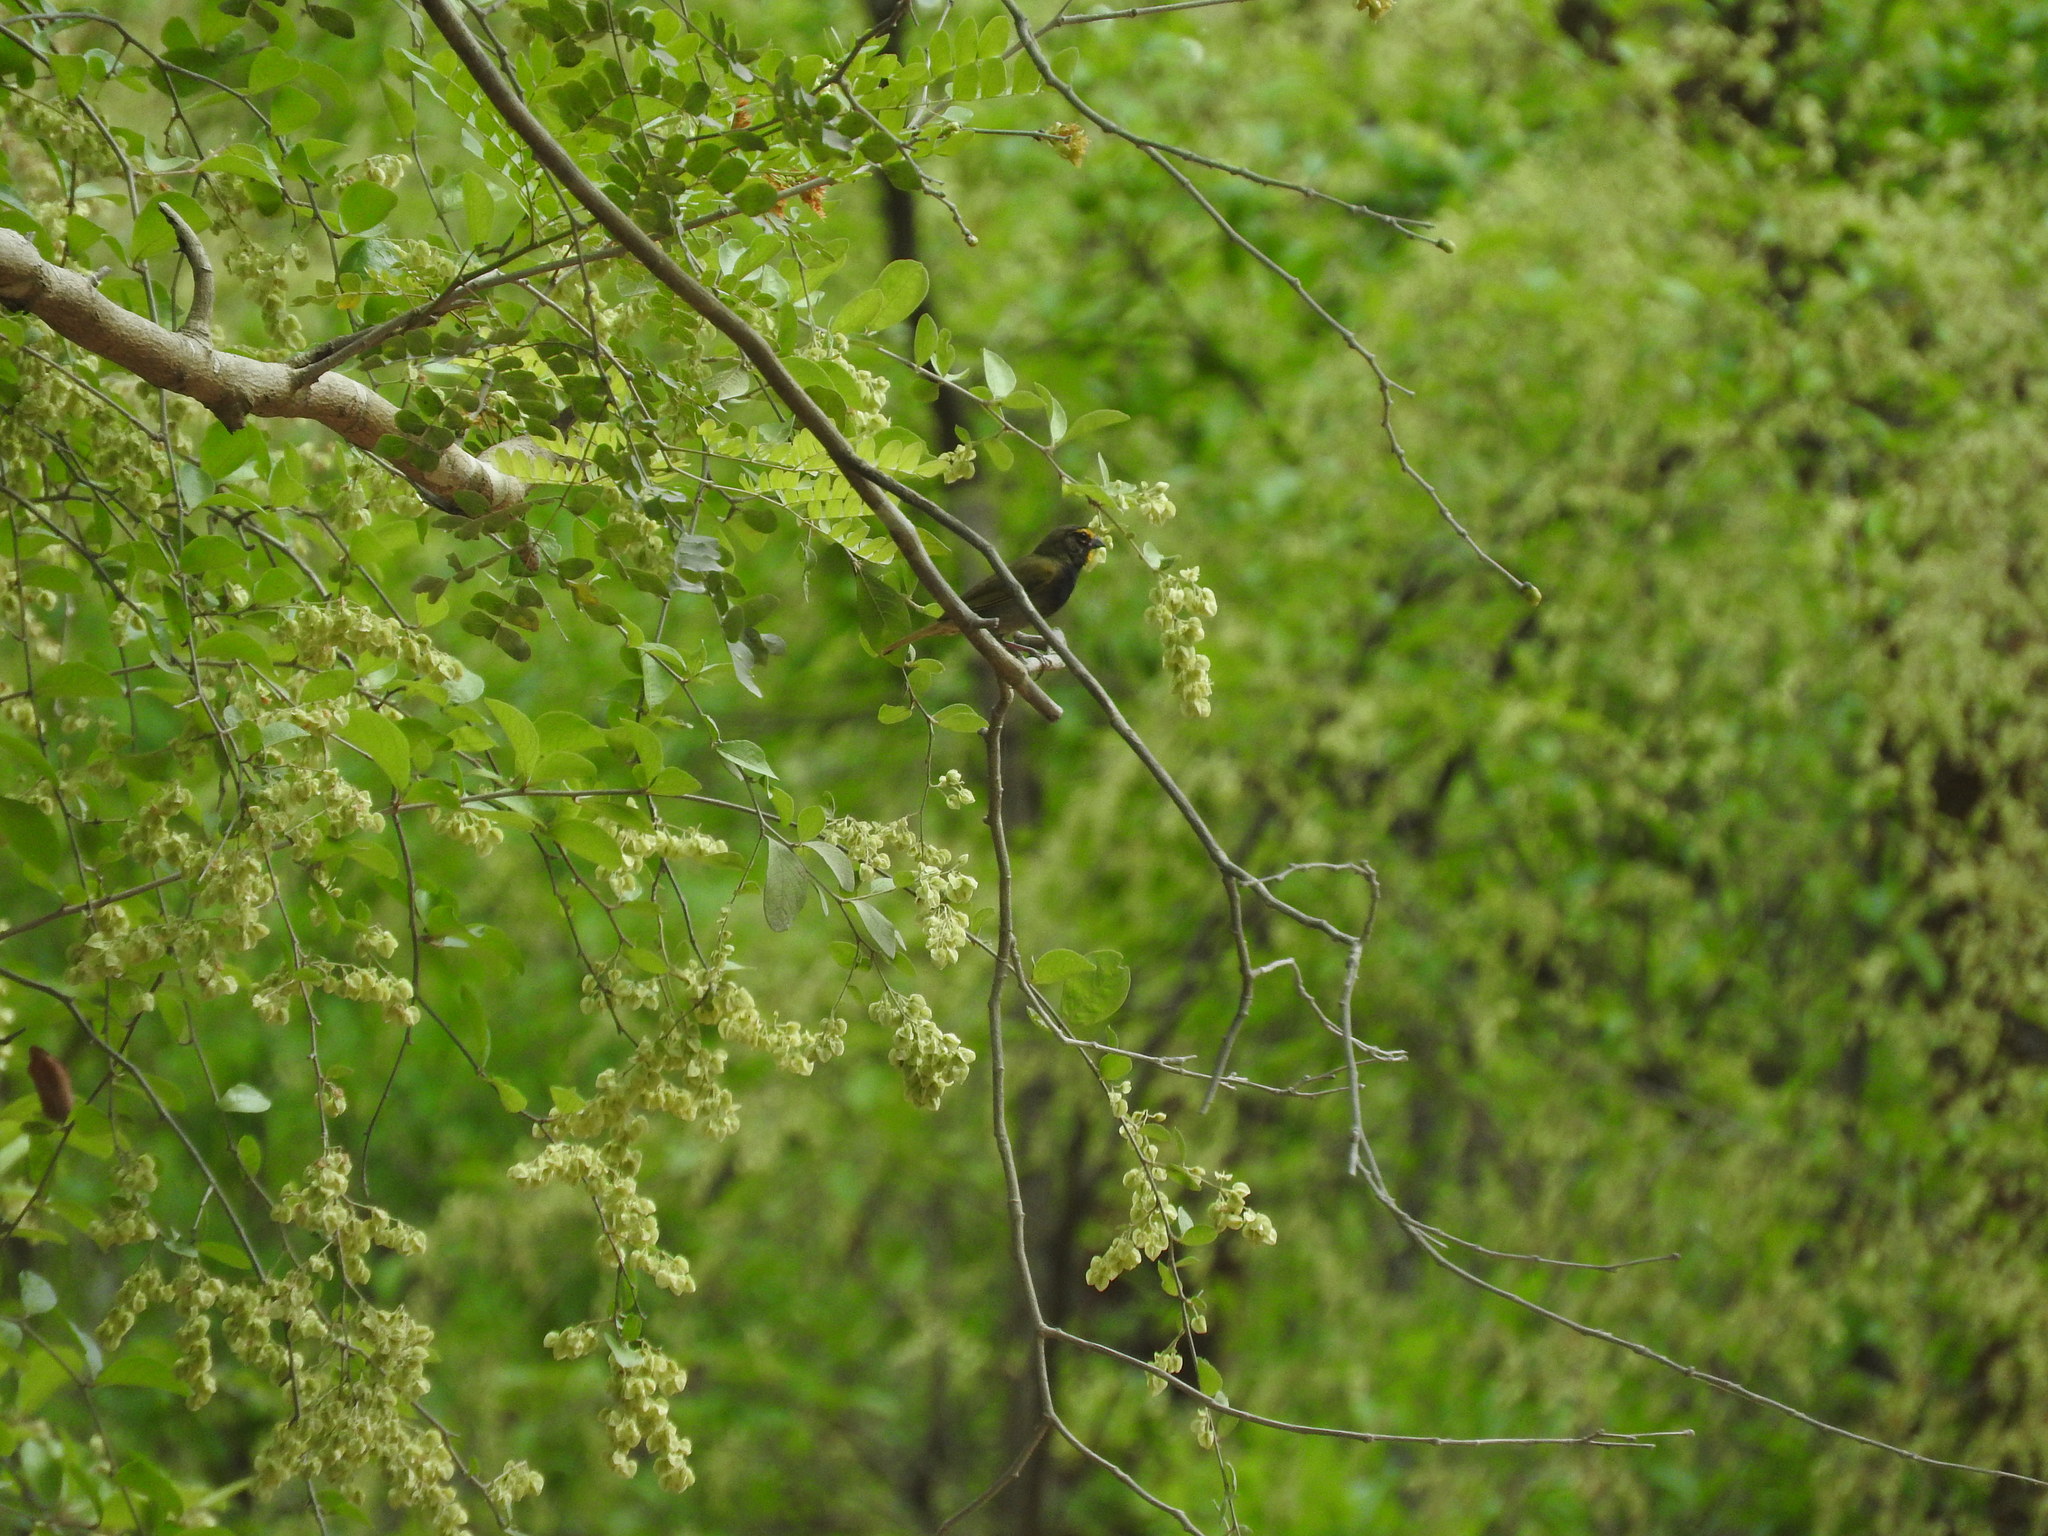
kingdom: Animalia
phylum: Chordata
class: Aves
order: Passeriformes
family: Thraupidae
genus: Tiaris
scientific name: Tiaris olivaceus
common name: Yellow-faced grassquit
